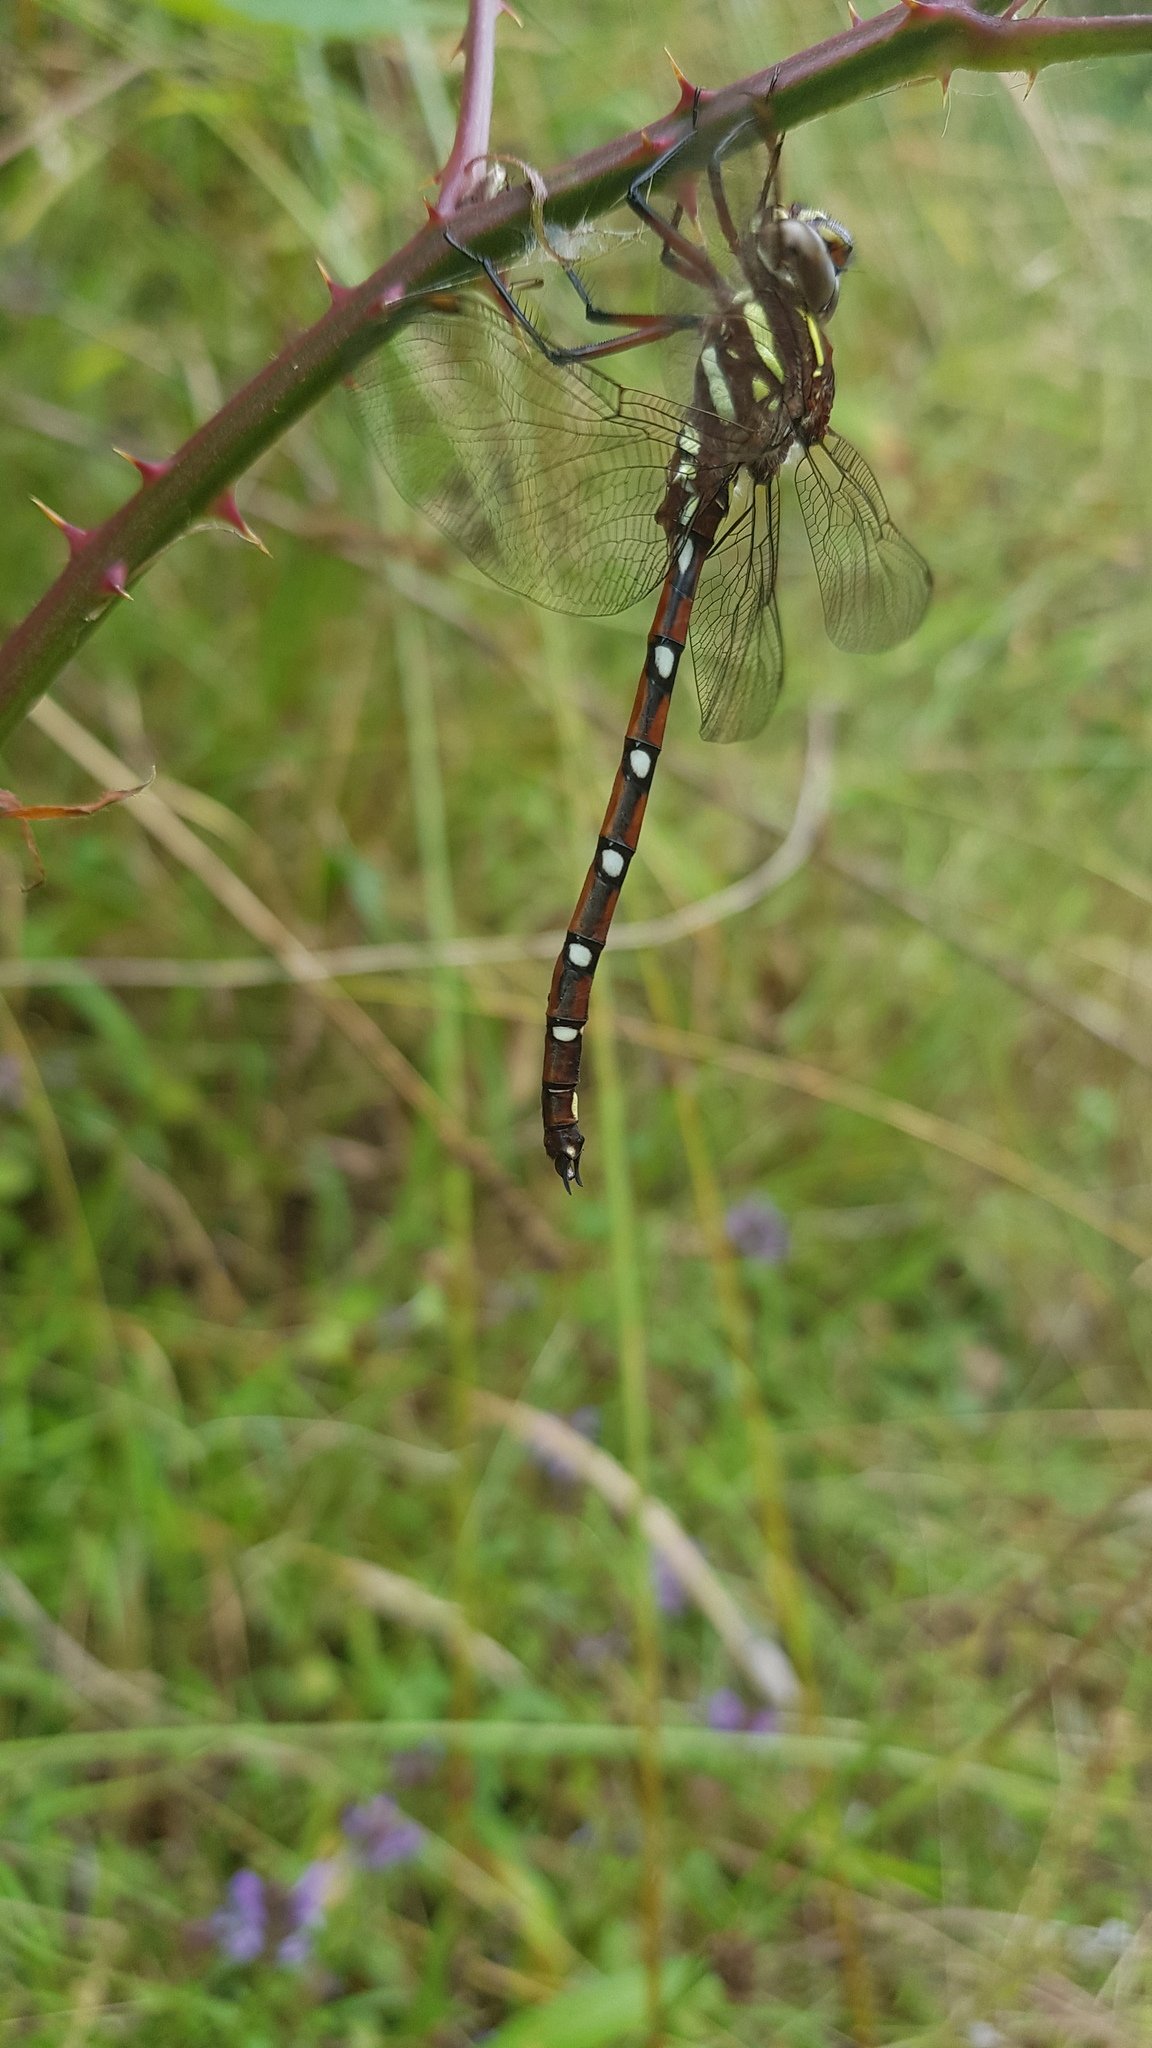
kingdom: Animalia
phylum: Arthropoda
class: Insecta
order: Odonata
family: Aeshnidae
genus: Austroaeschna
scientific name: Austroaeschna pulchra
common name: Forest darner
